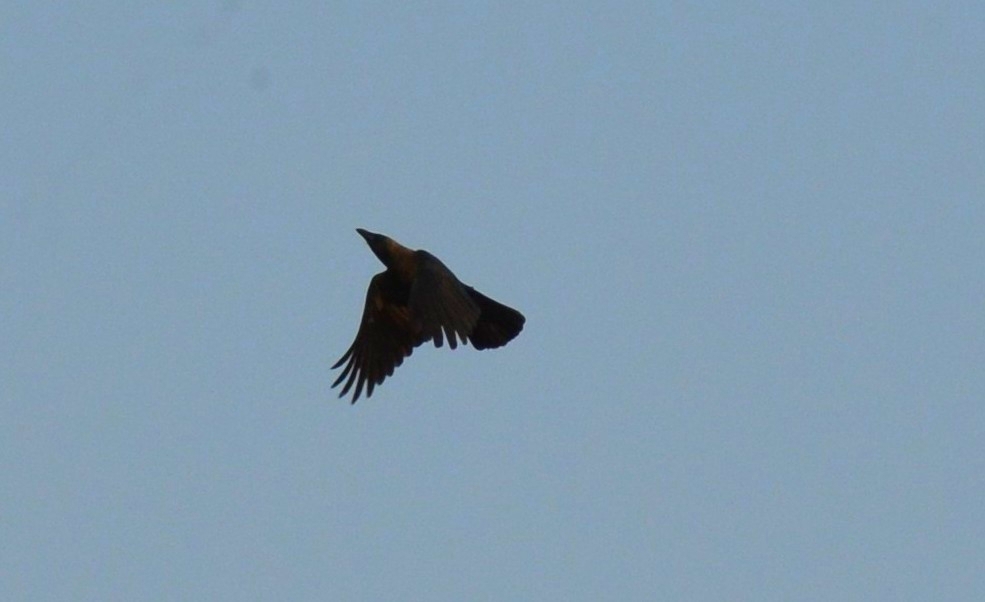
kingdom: Animalia
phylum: Chordata
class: Aves
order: Passeriformes
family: Corvidae
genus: Corvus
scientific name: Corvus splendens
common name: House crow
